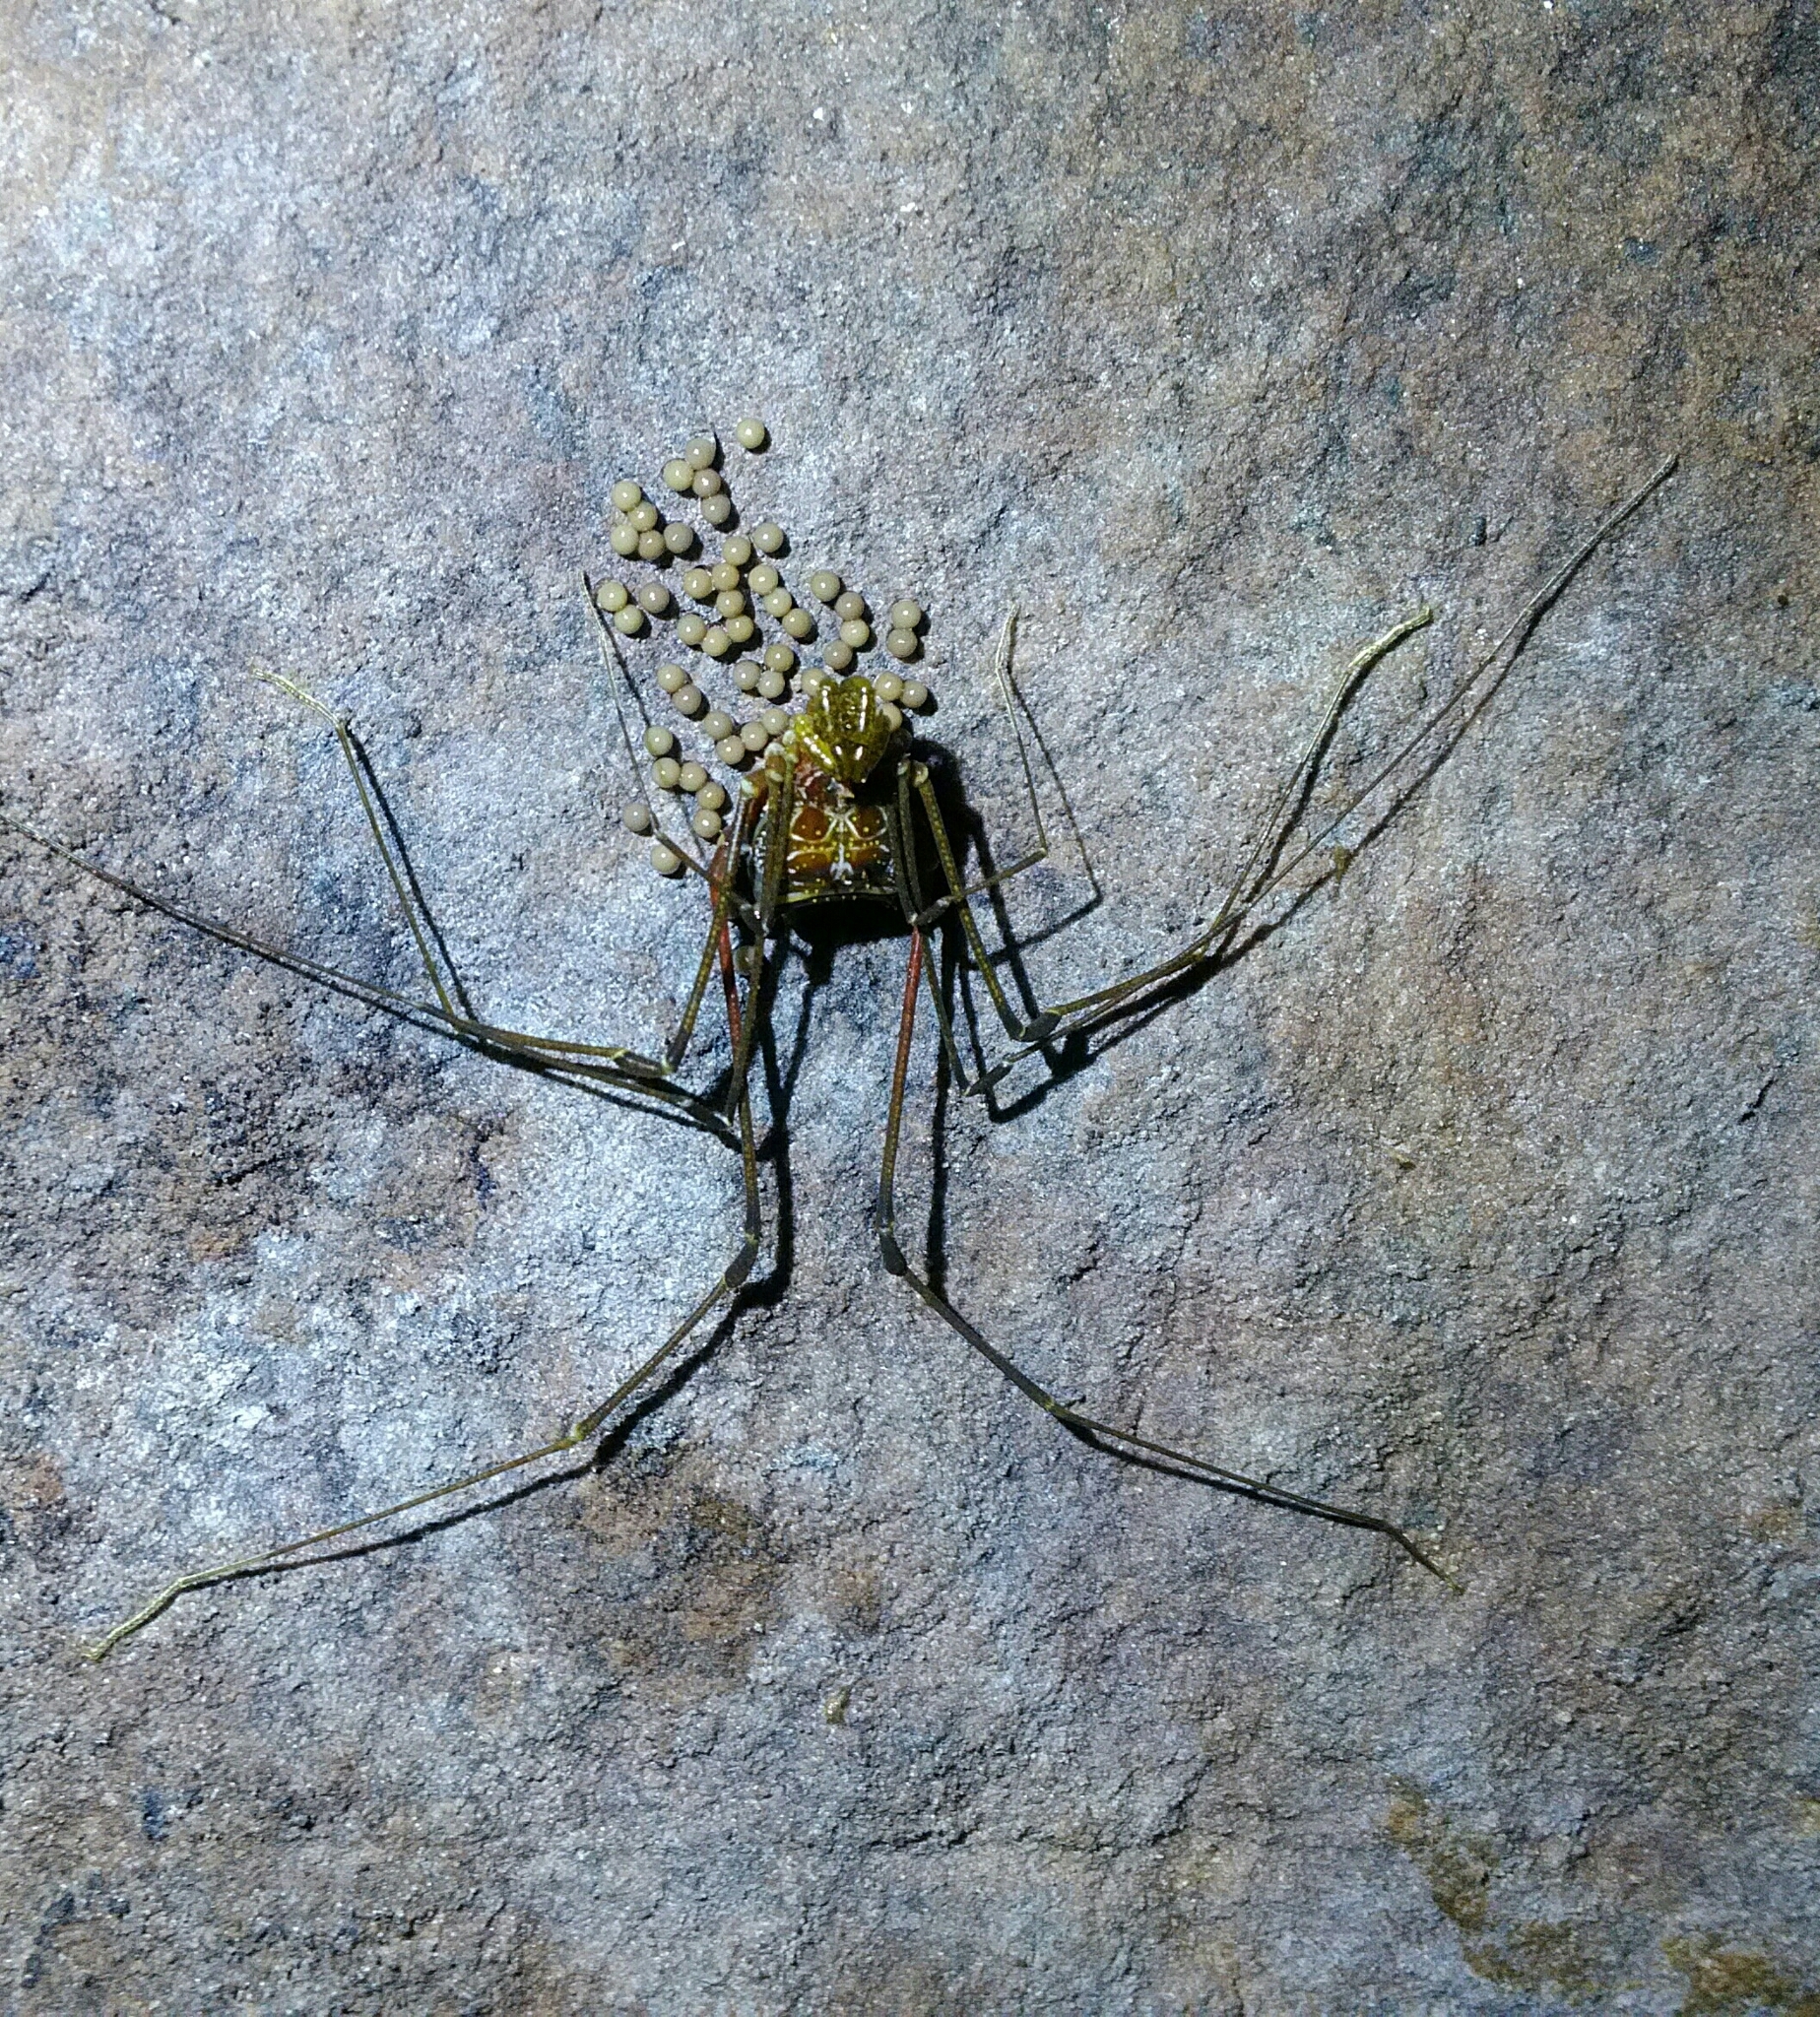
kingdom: Animalia
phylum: Arthropoda
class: Arachnida
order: Opiliones
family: Gonyleptidae
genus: Acutisoma
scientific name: Acutisoma longipes
